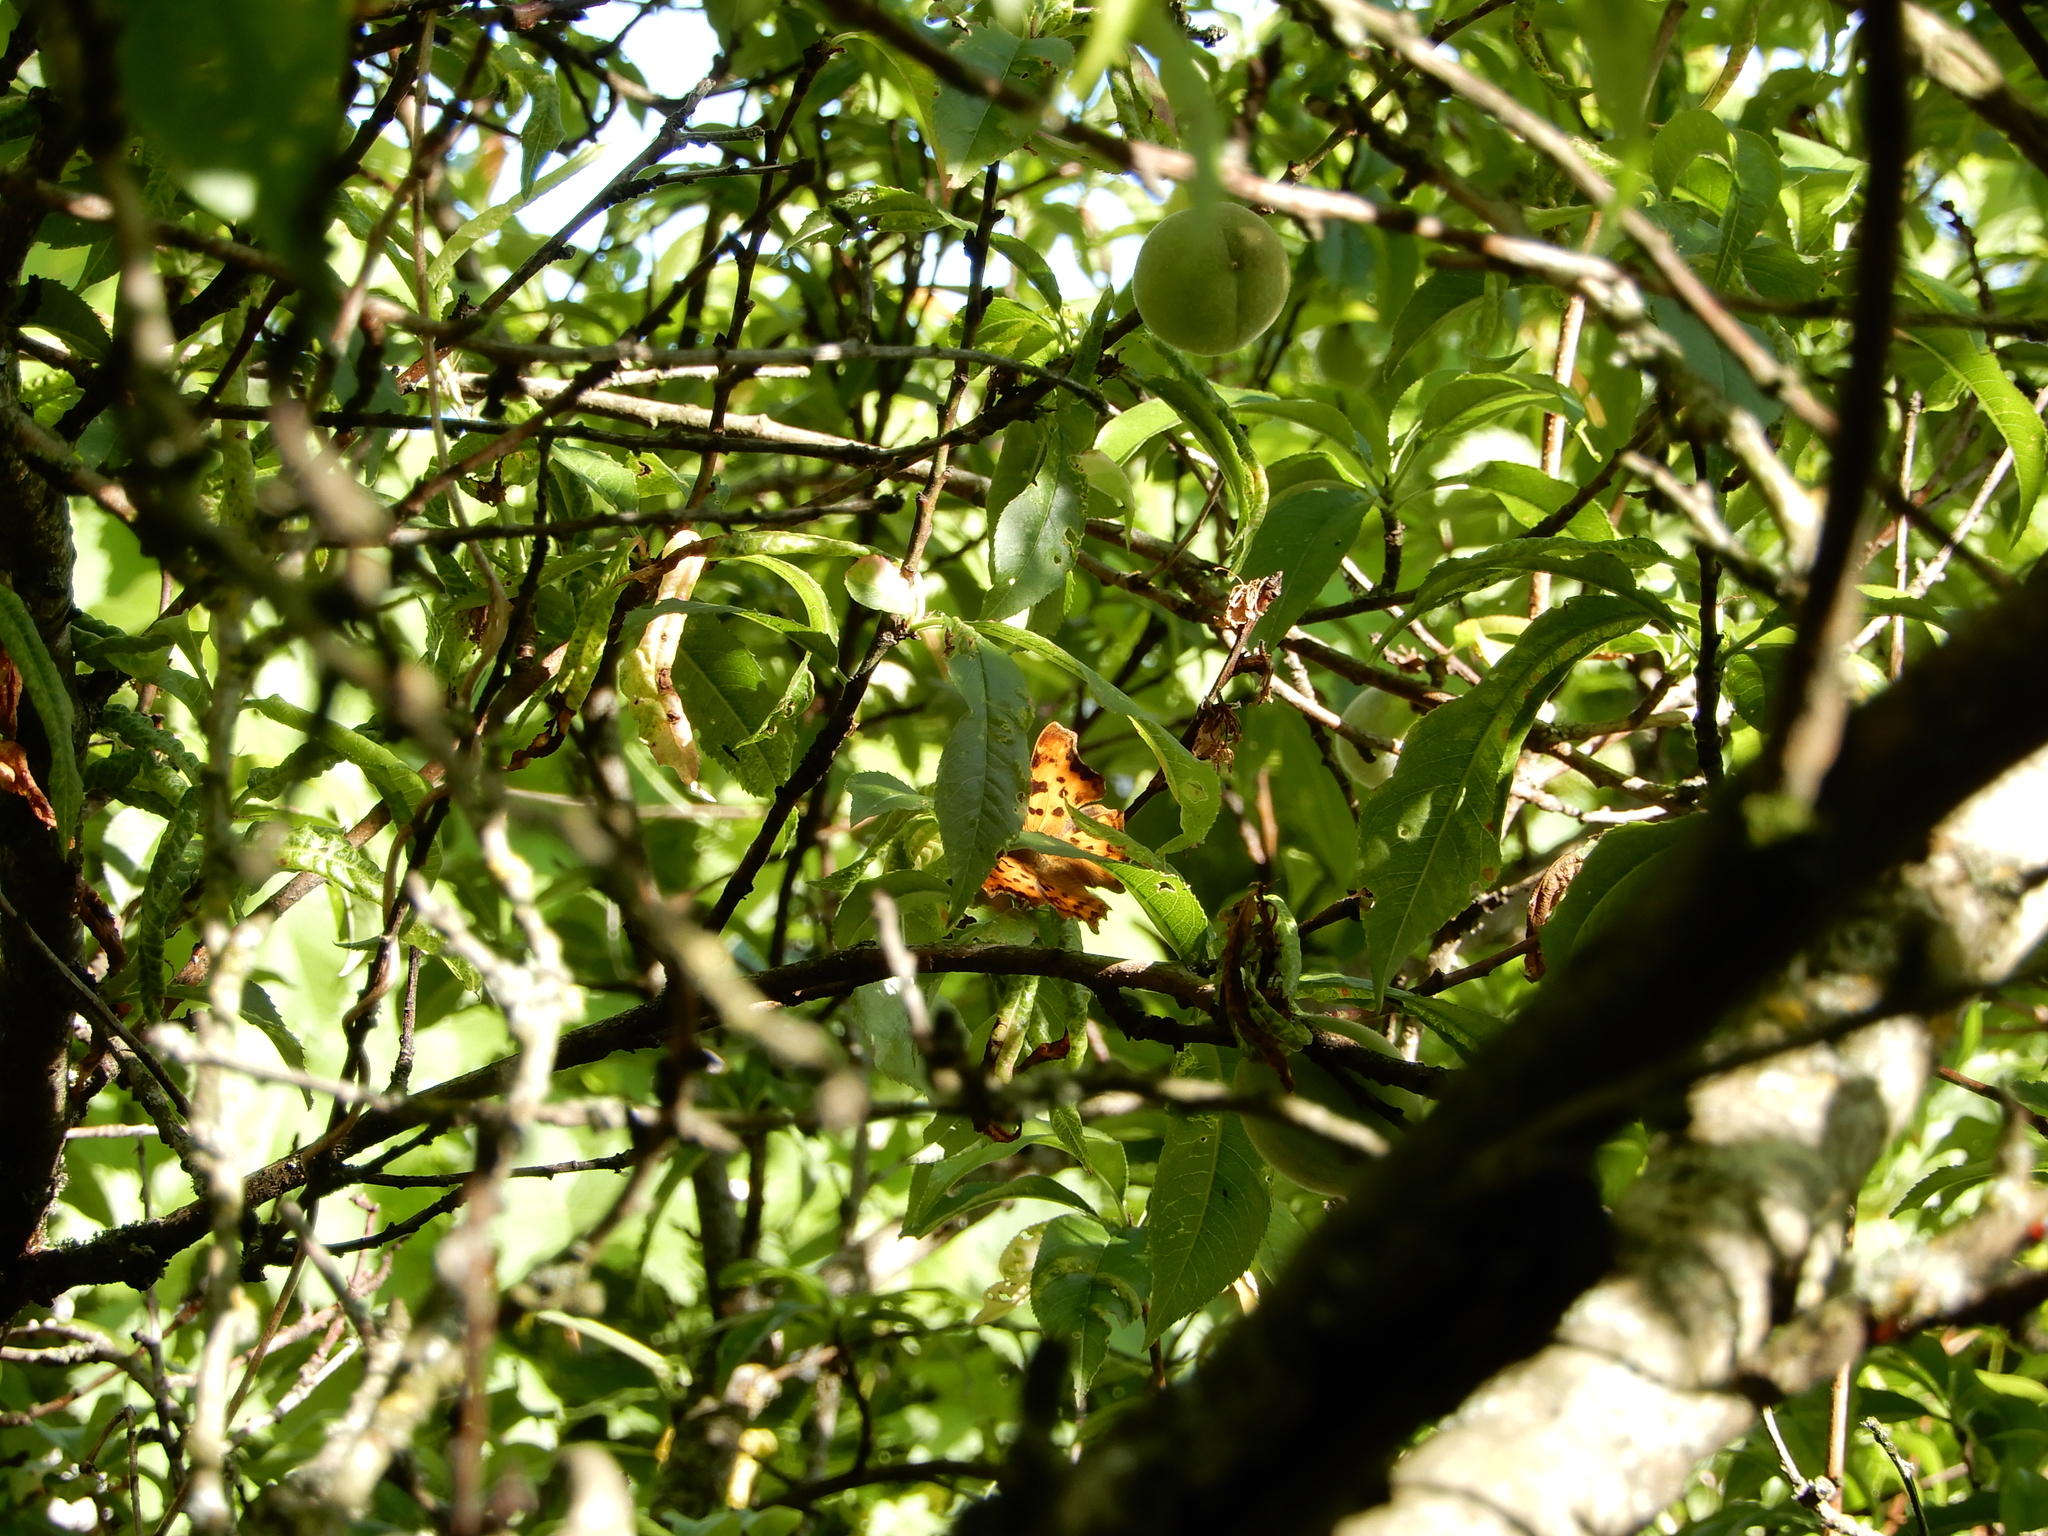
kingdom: Animalia
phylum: Arthropoda
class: Insecta
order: Lepidoptera
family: Nymphalidae
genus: Polygonia
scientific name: Polygonia c-album
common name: Comma
